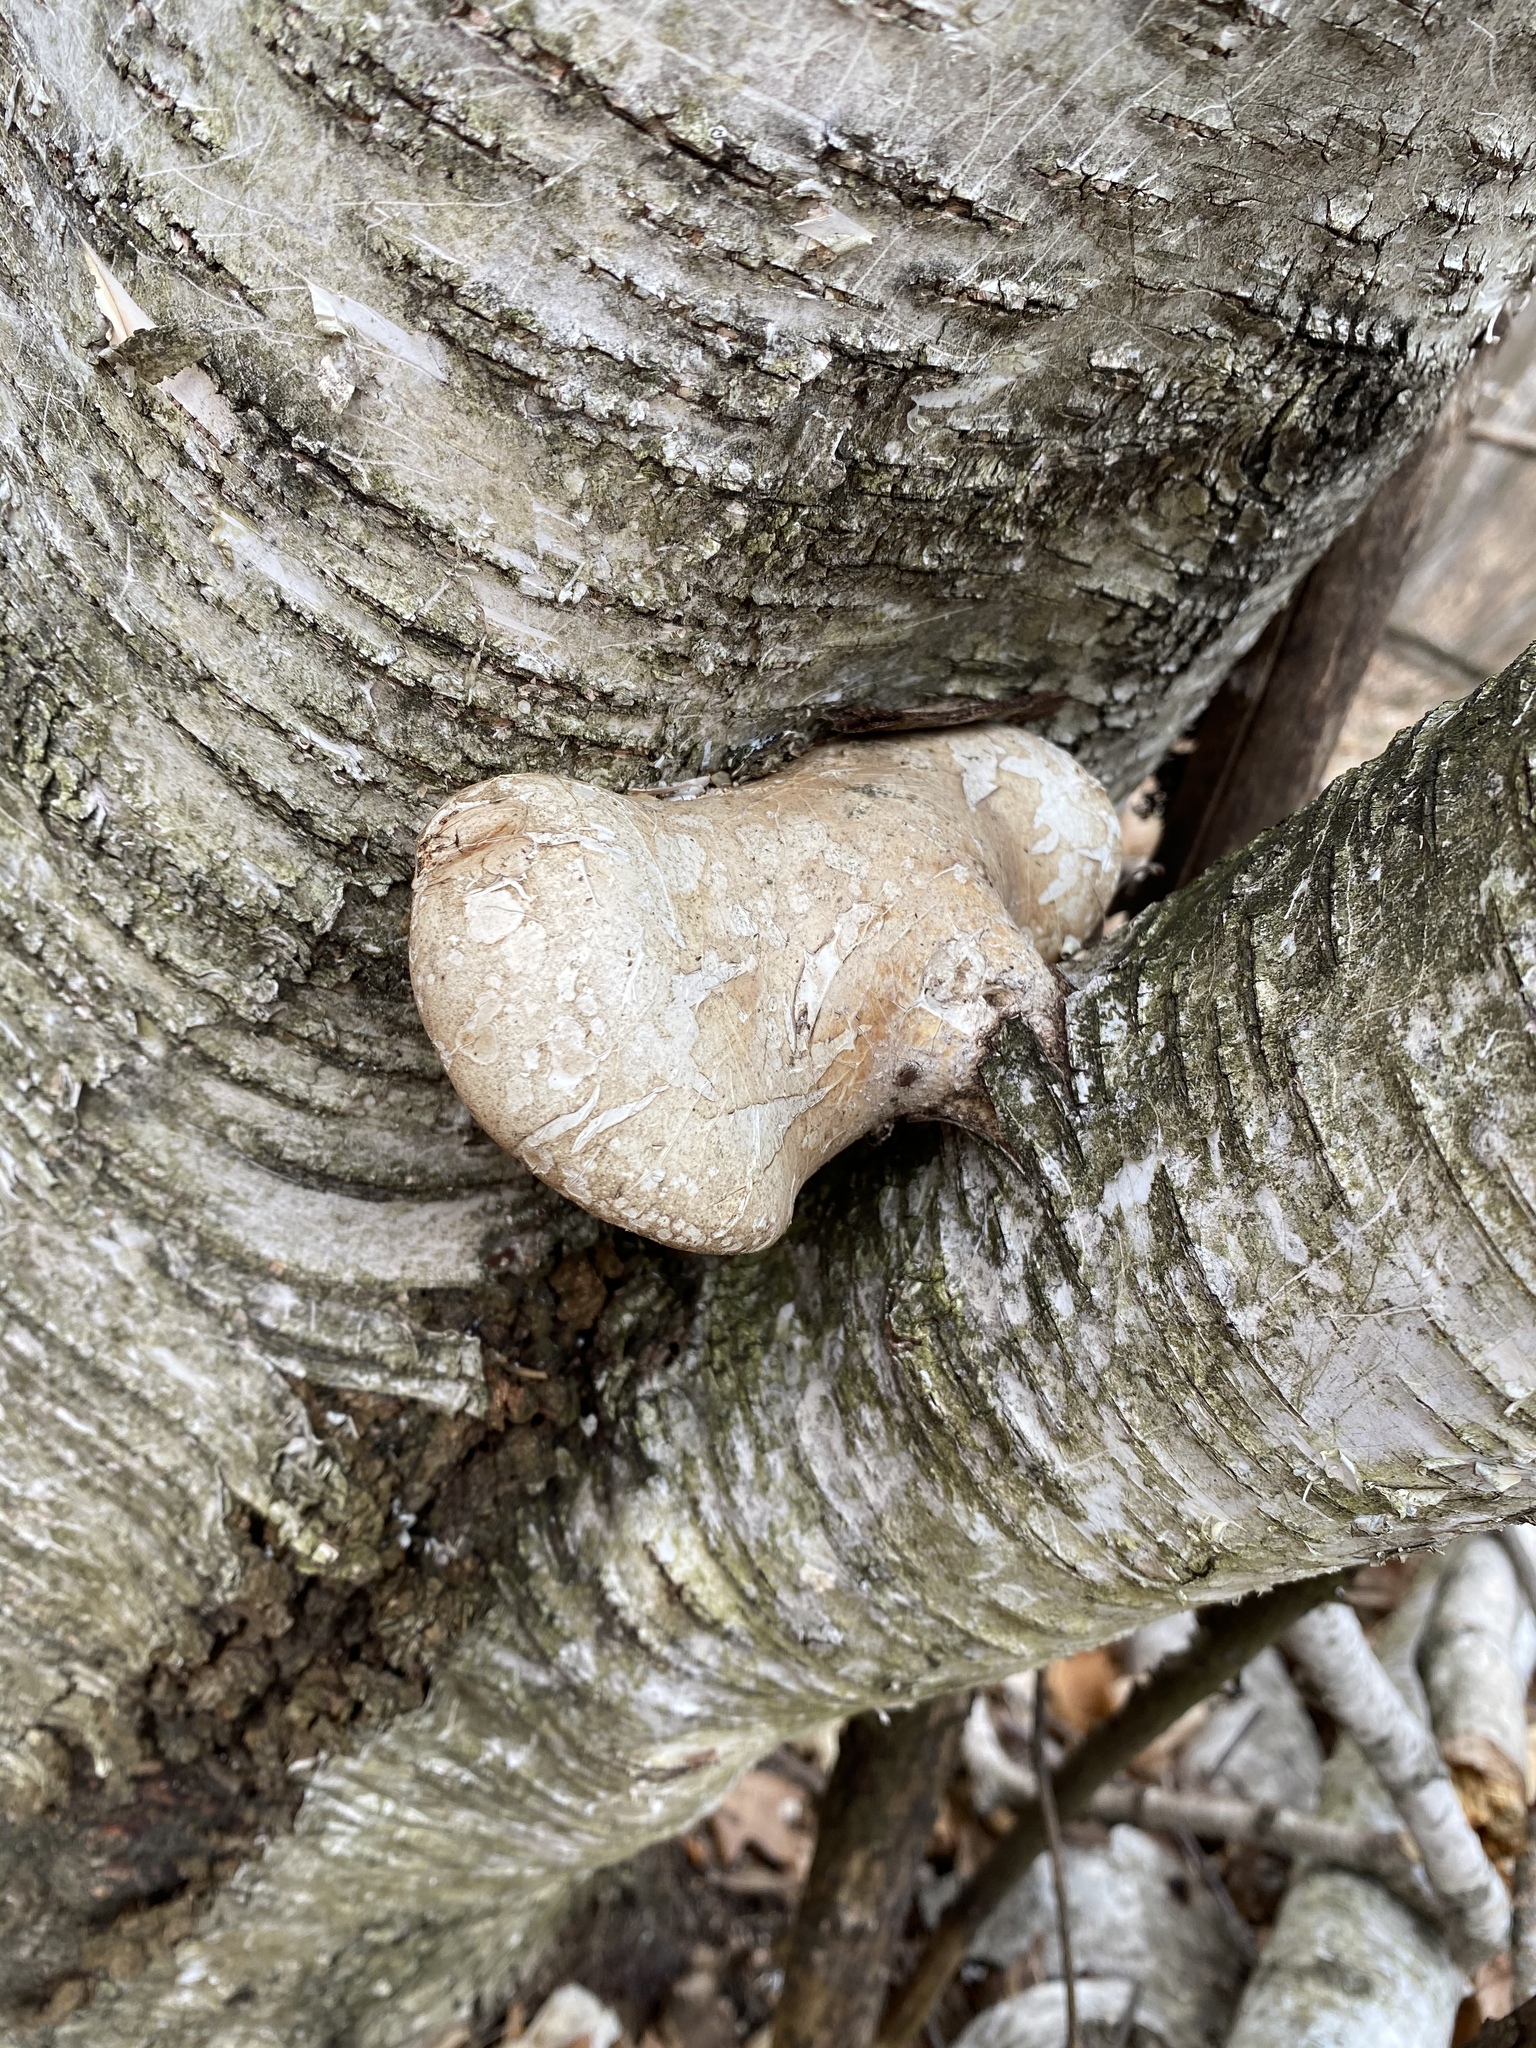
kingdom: Fungi
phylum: Basidiomycota
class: Agaricomycetes
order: Polyporales
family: Fomitopsidaceae
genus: Fomitopsis
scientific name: Fomitopsis betulina
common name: Birch polypore
